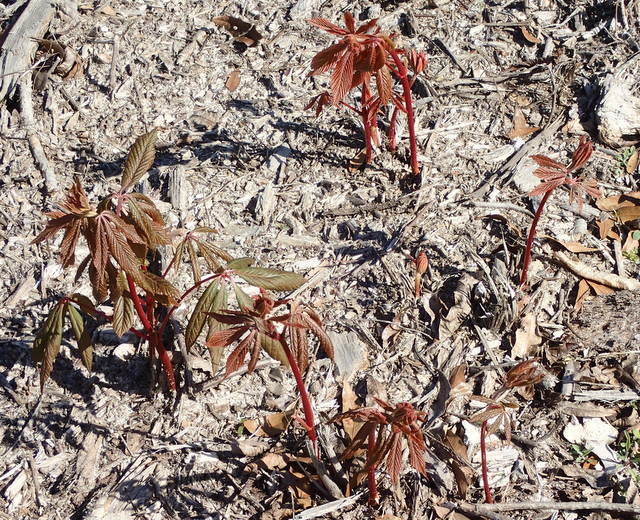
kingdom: Plantae
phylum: Tracheophyta
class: Magnoliopsida
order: Sapindales
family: Sapindaceae
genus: Aesculus
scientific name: Aesculus pavia
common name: Red buckeye
